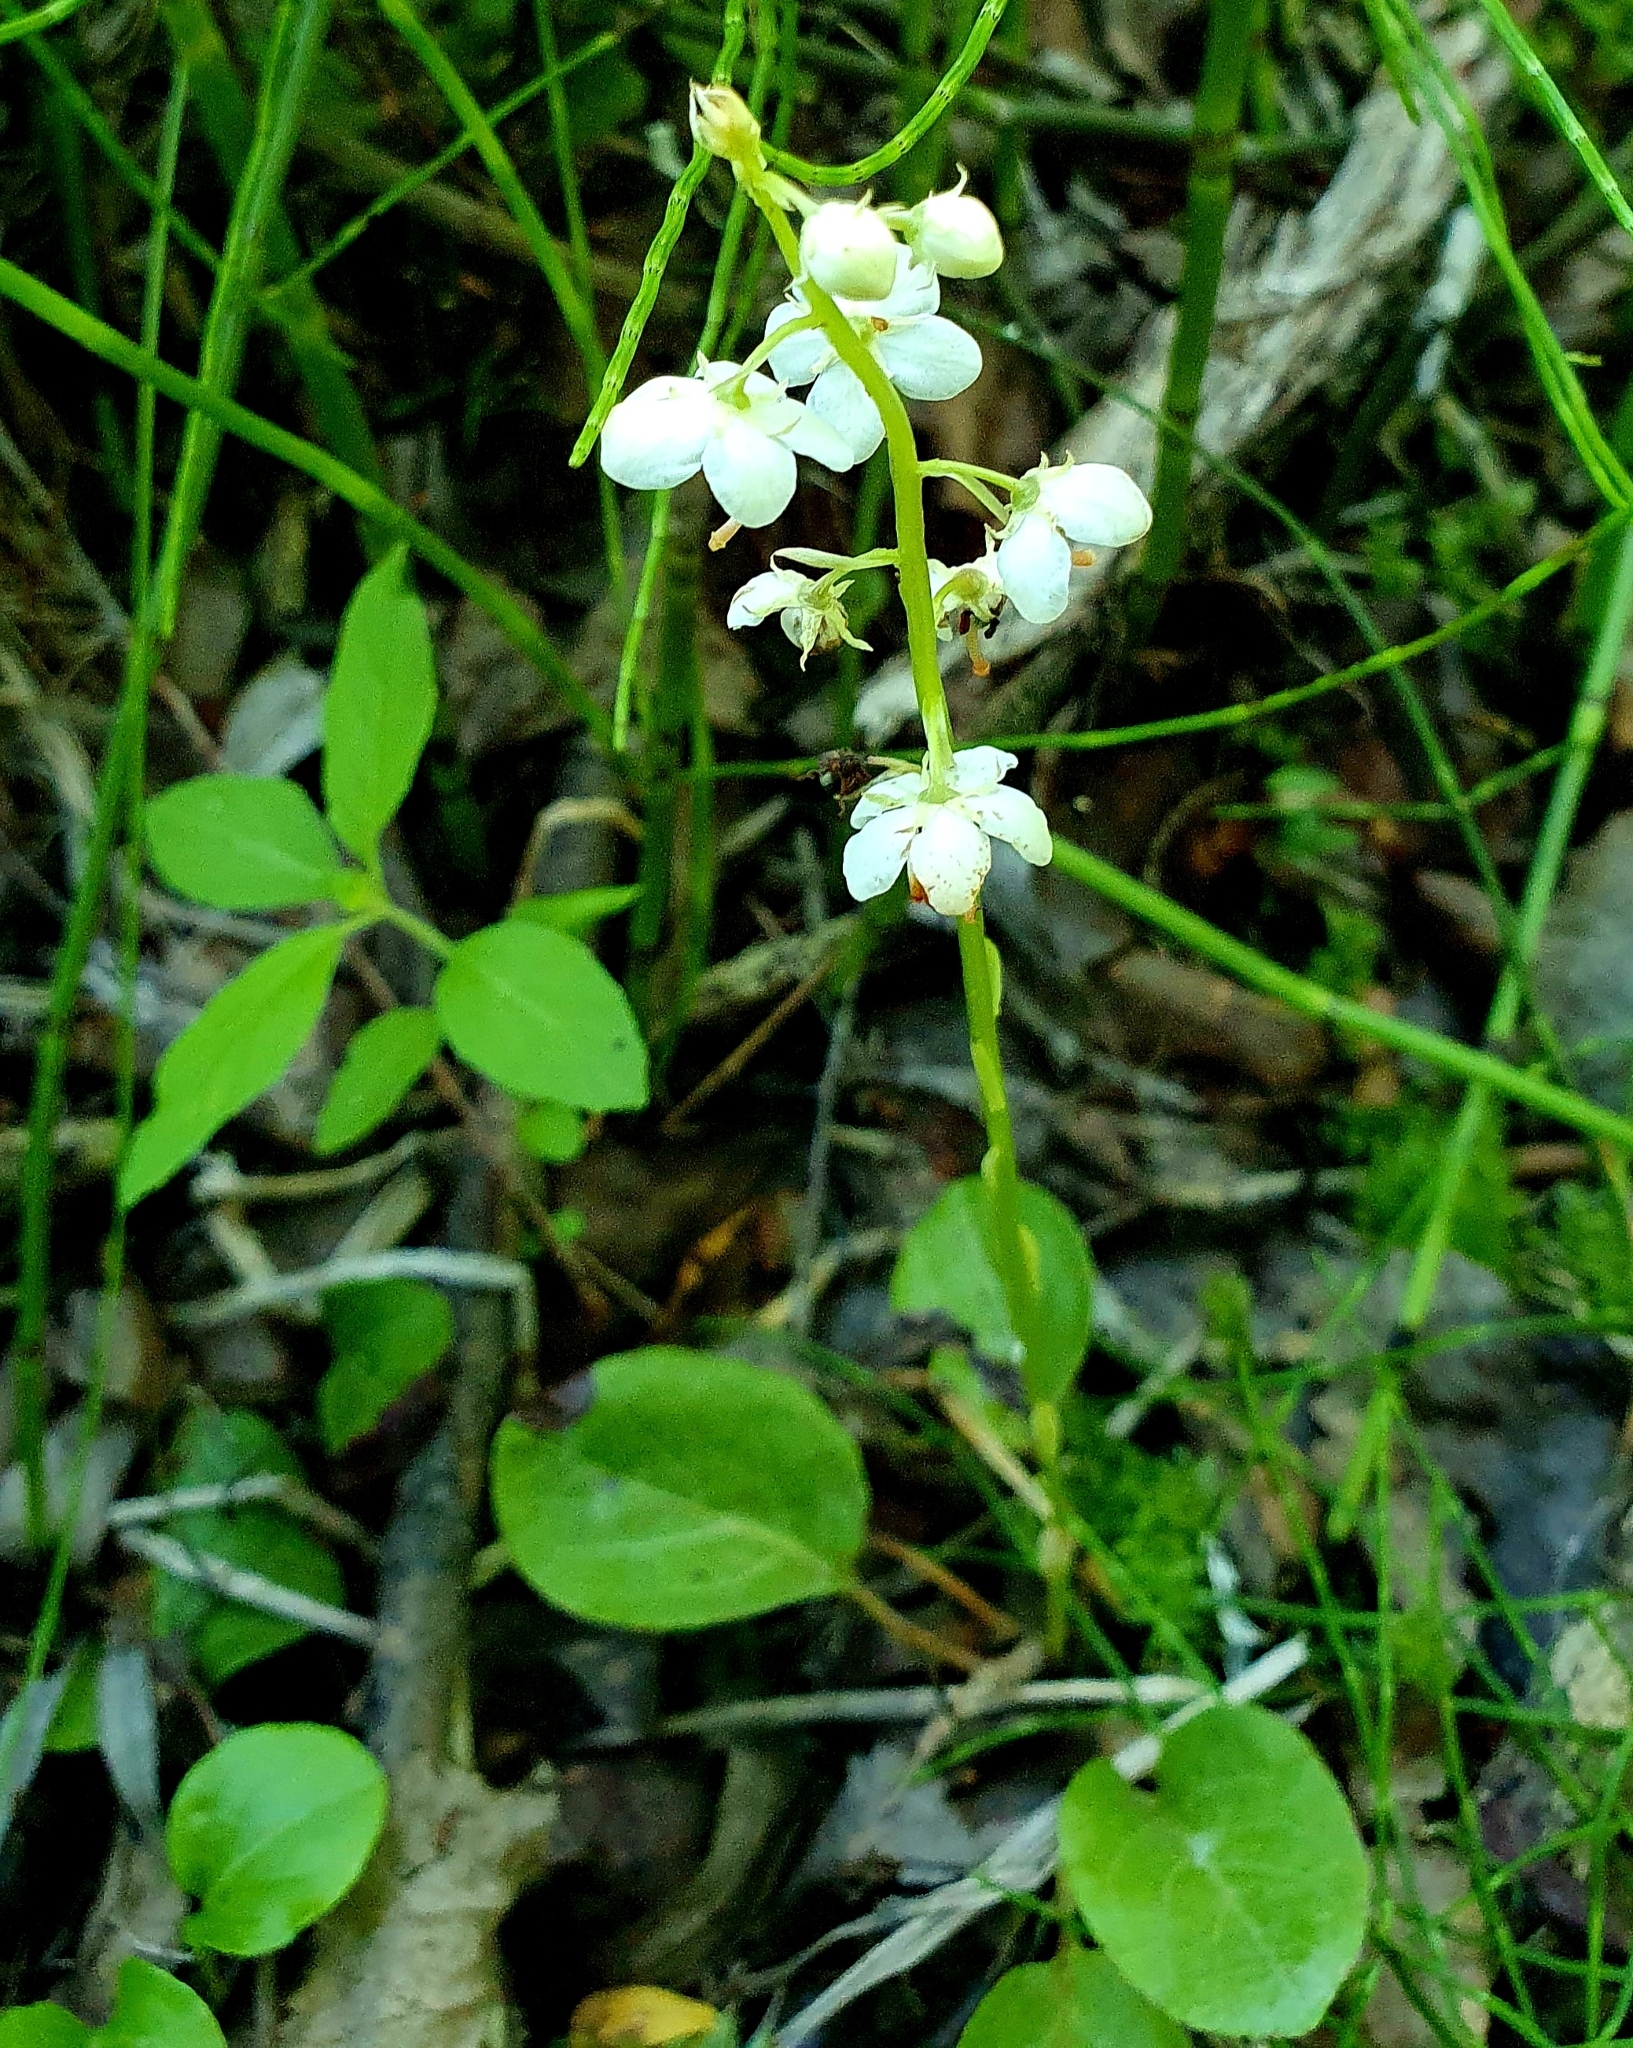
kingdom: Plantae
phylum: Tracheophyta
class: Magnoliopsida
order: Ericales
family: Ericaceae
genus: Pyrola
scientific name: Pyrola rotundifolia
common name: Round-leaved wintergreen
